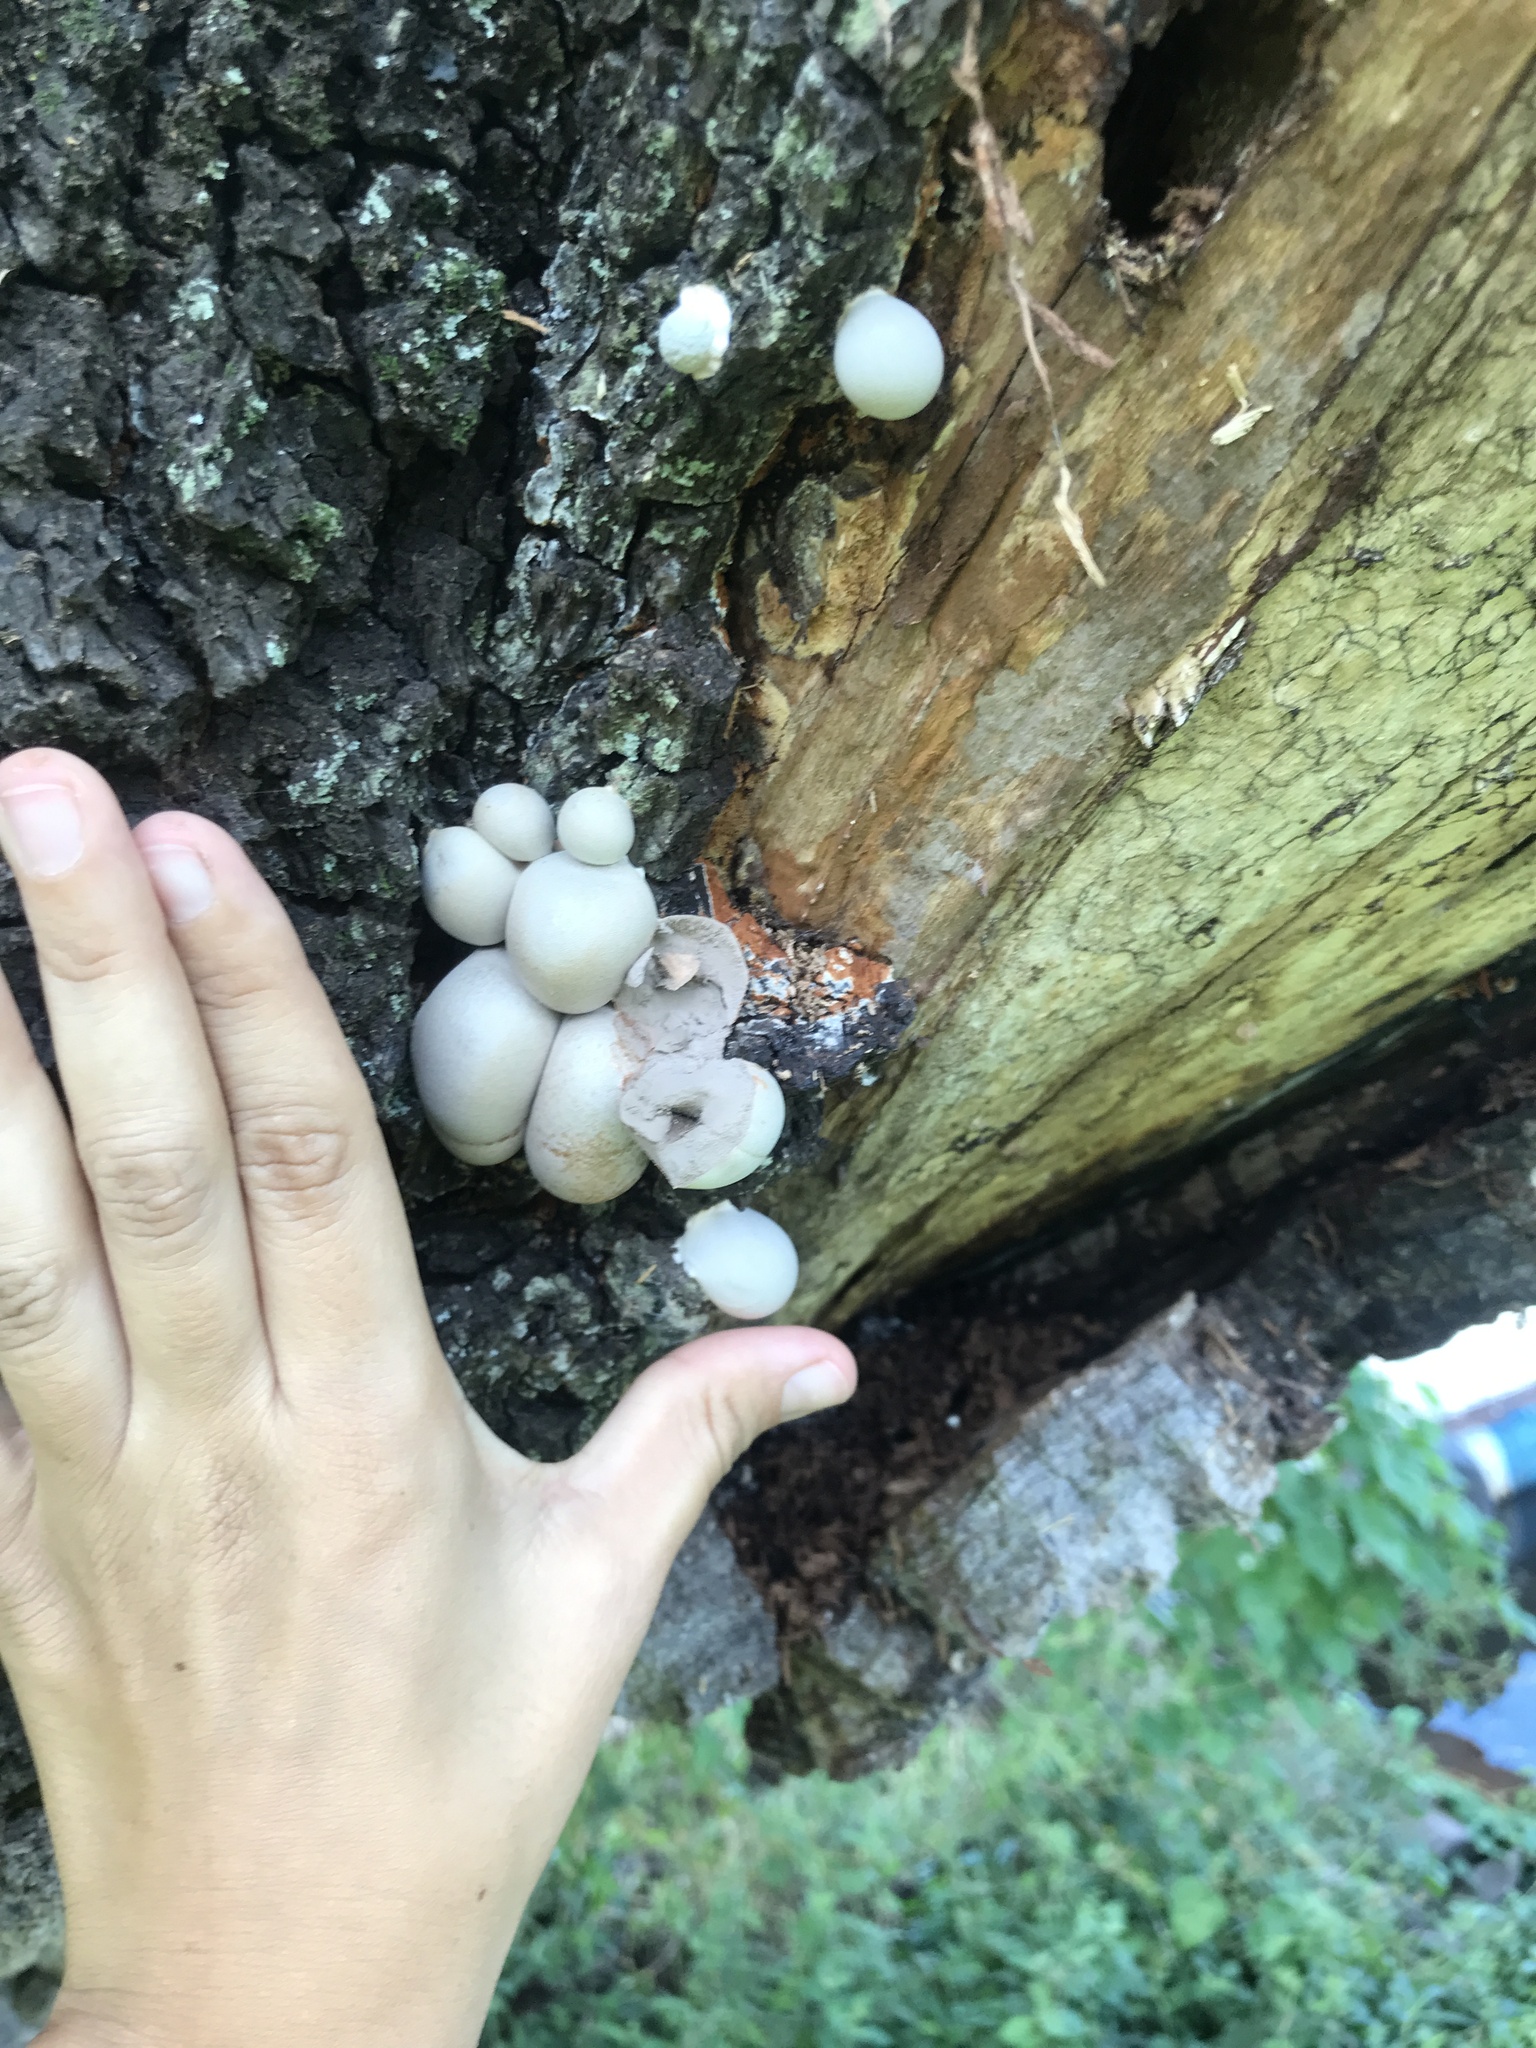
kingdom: Protozoa
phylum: Mycetozoa
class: Myxomycetes
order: Cribrariales
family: Tubiferaceae
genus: Lycogala
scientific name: Lycogala flavofuscum
